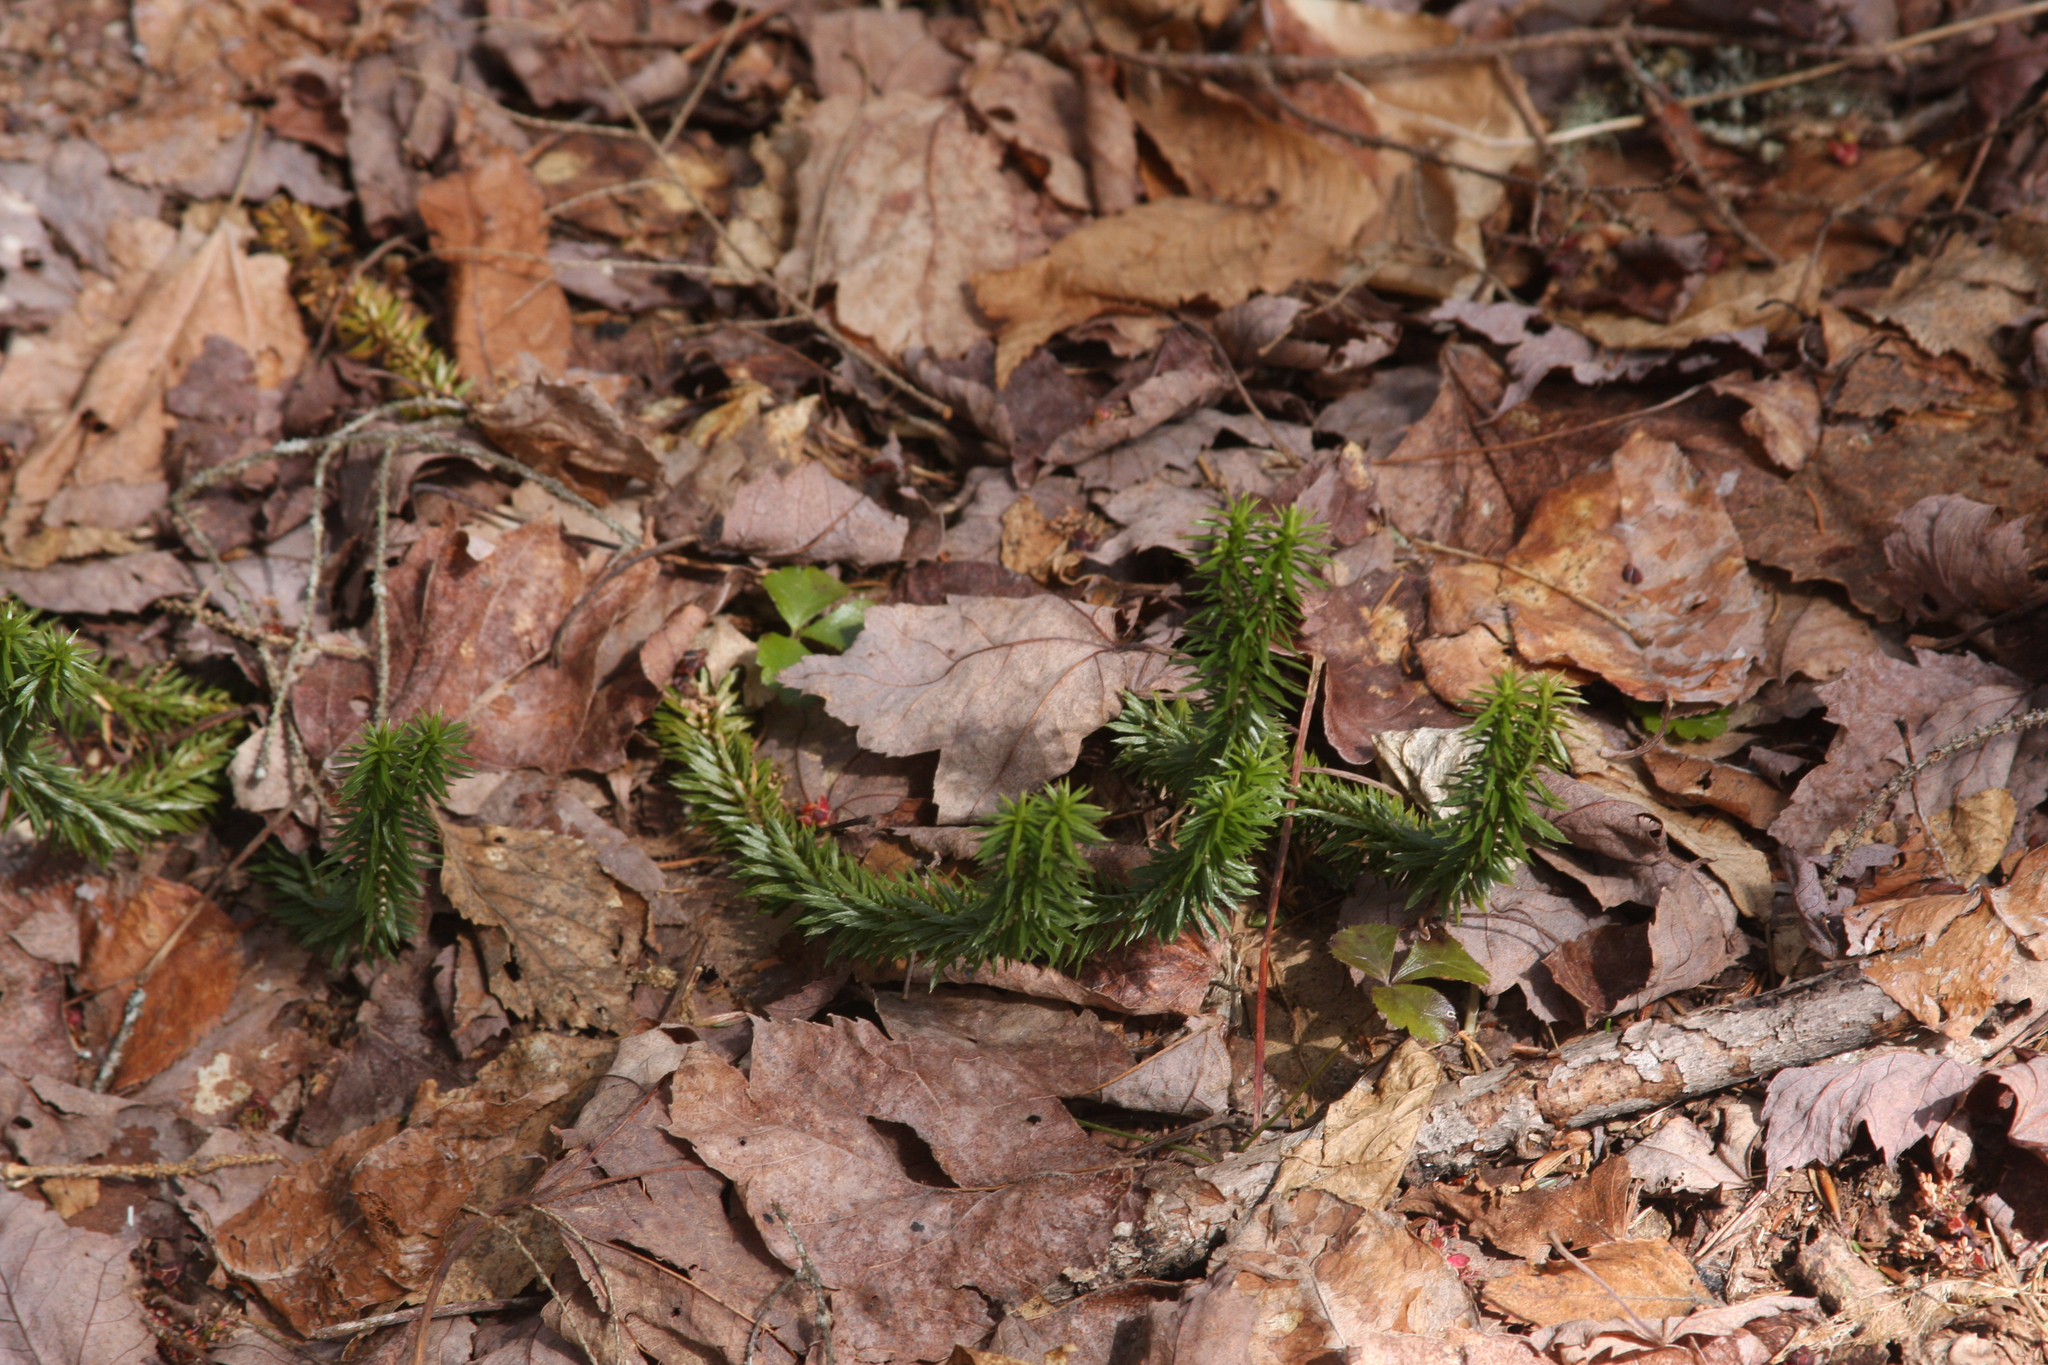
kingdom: Plantae
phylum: Tracheophyta
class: Lycopodiopsida
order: Lycopodiales
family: Lycopodiaceae
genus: Huperzia
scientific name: Huperzia lucidula
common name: Shining clubmoss
